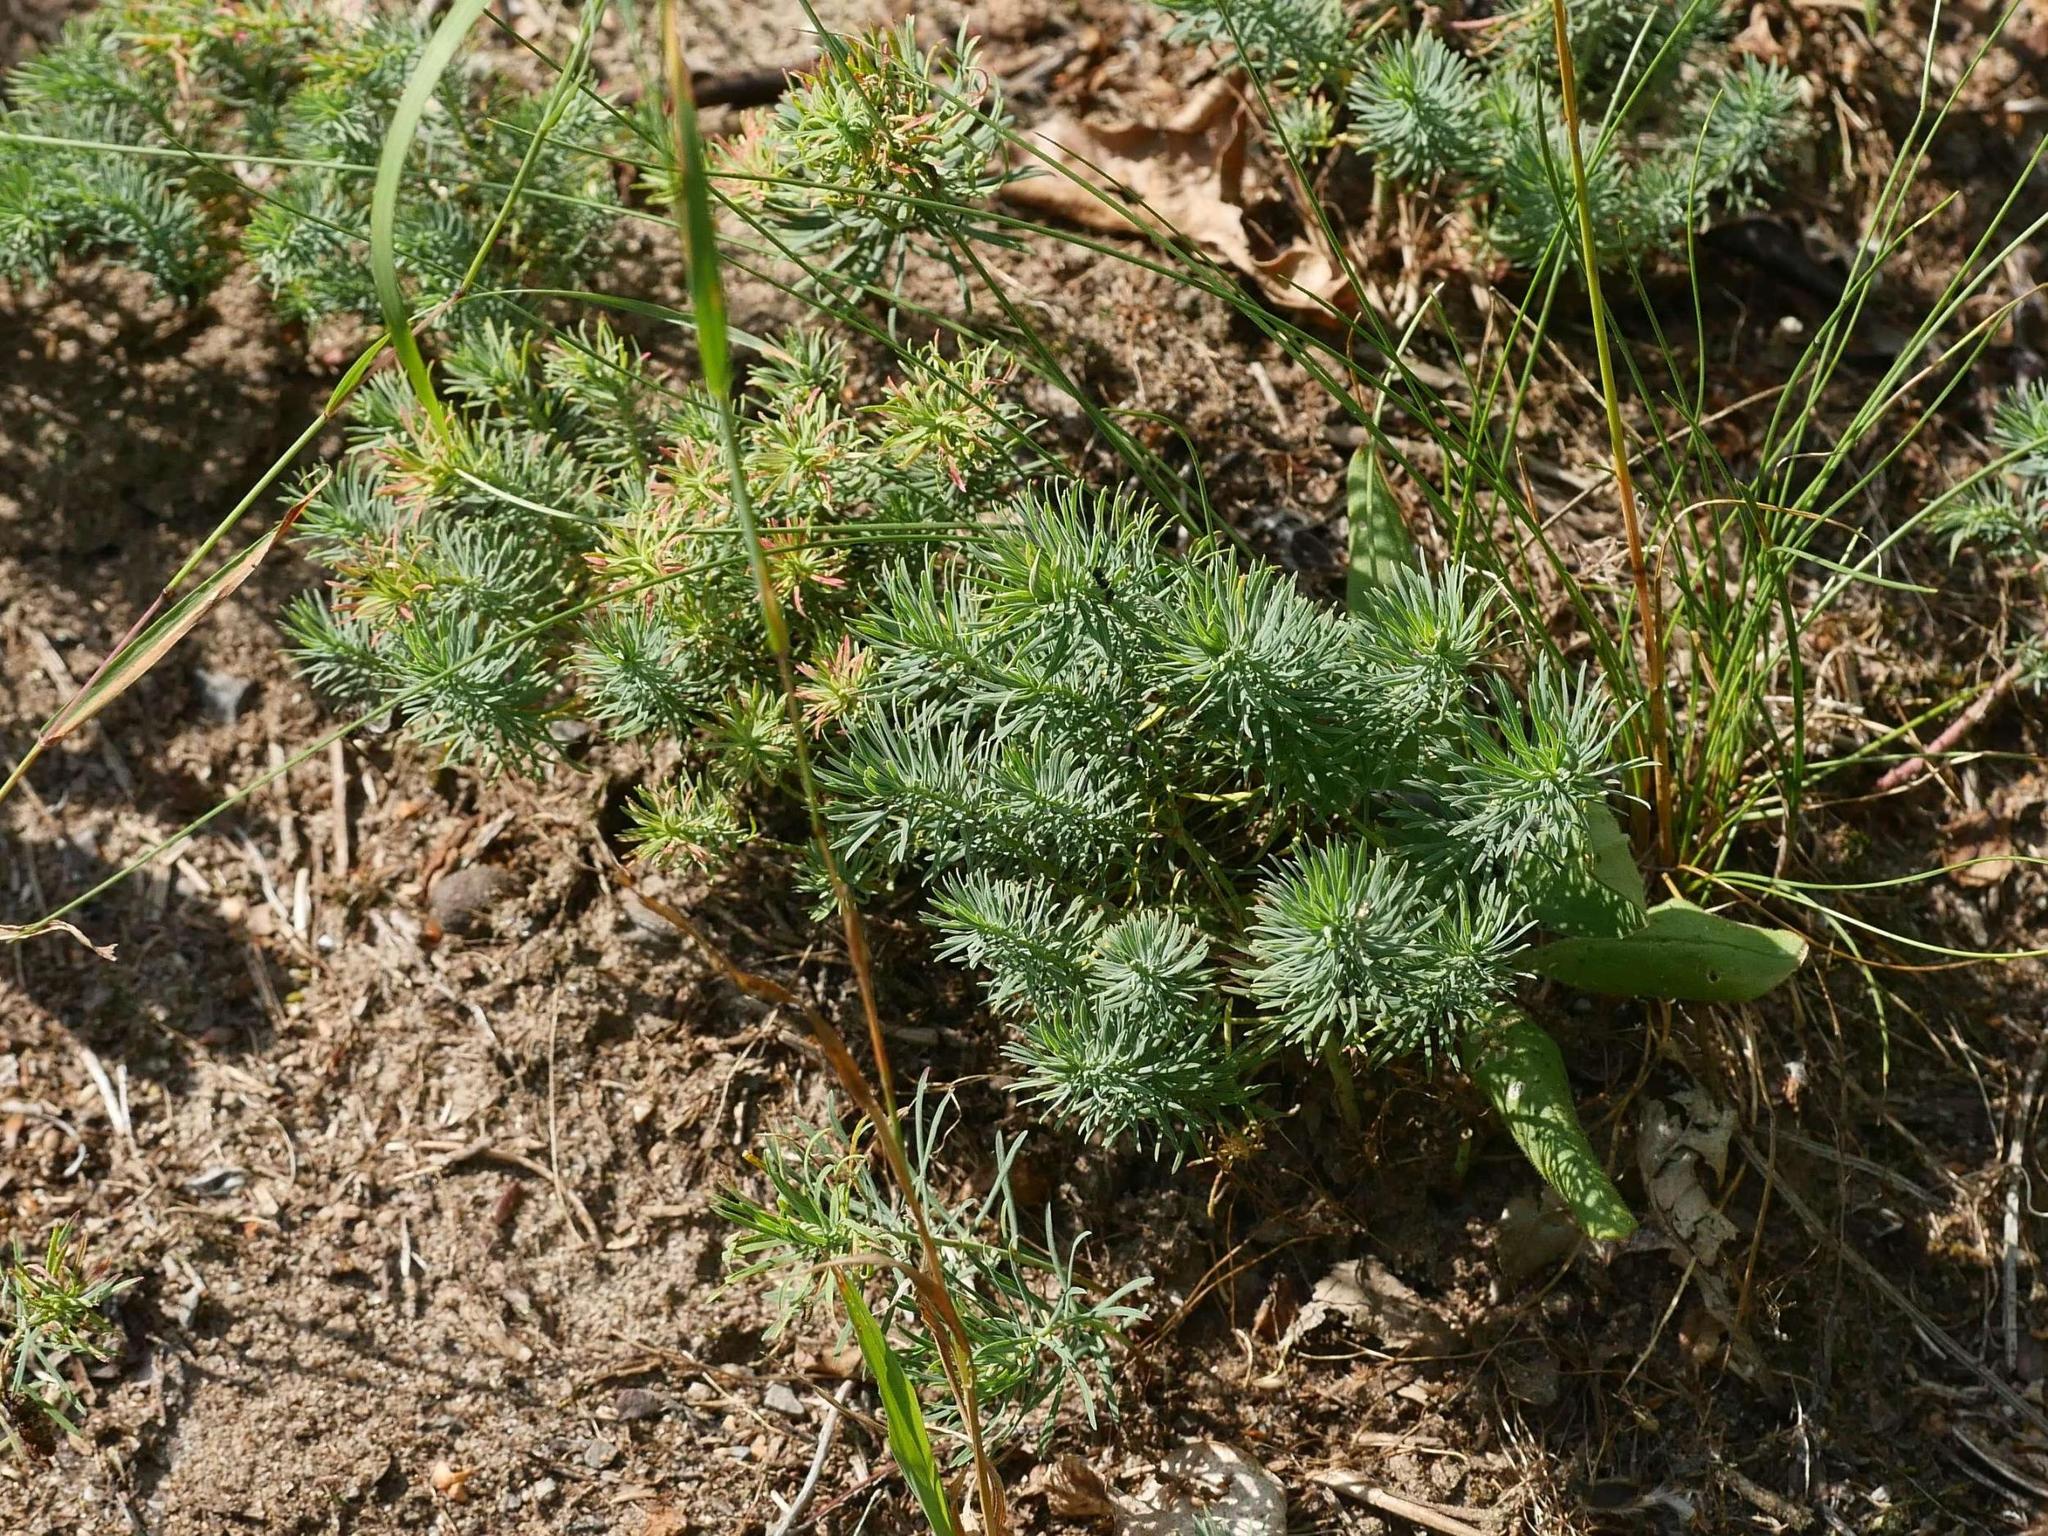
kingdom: Plantae
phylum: Tracheophyta
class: Magnoliopsida
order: Malpighiales
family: Euphorbiaceae
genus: Euphorbia
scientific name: Euphorbia cyparissias
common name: Cypress spurge
